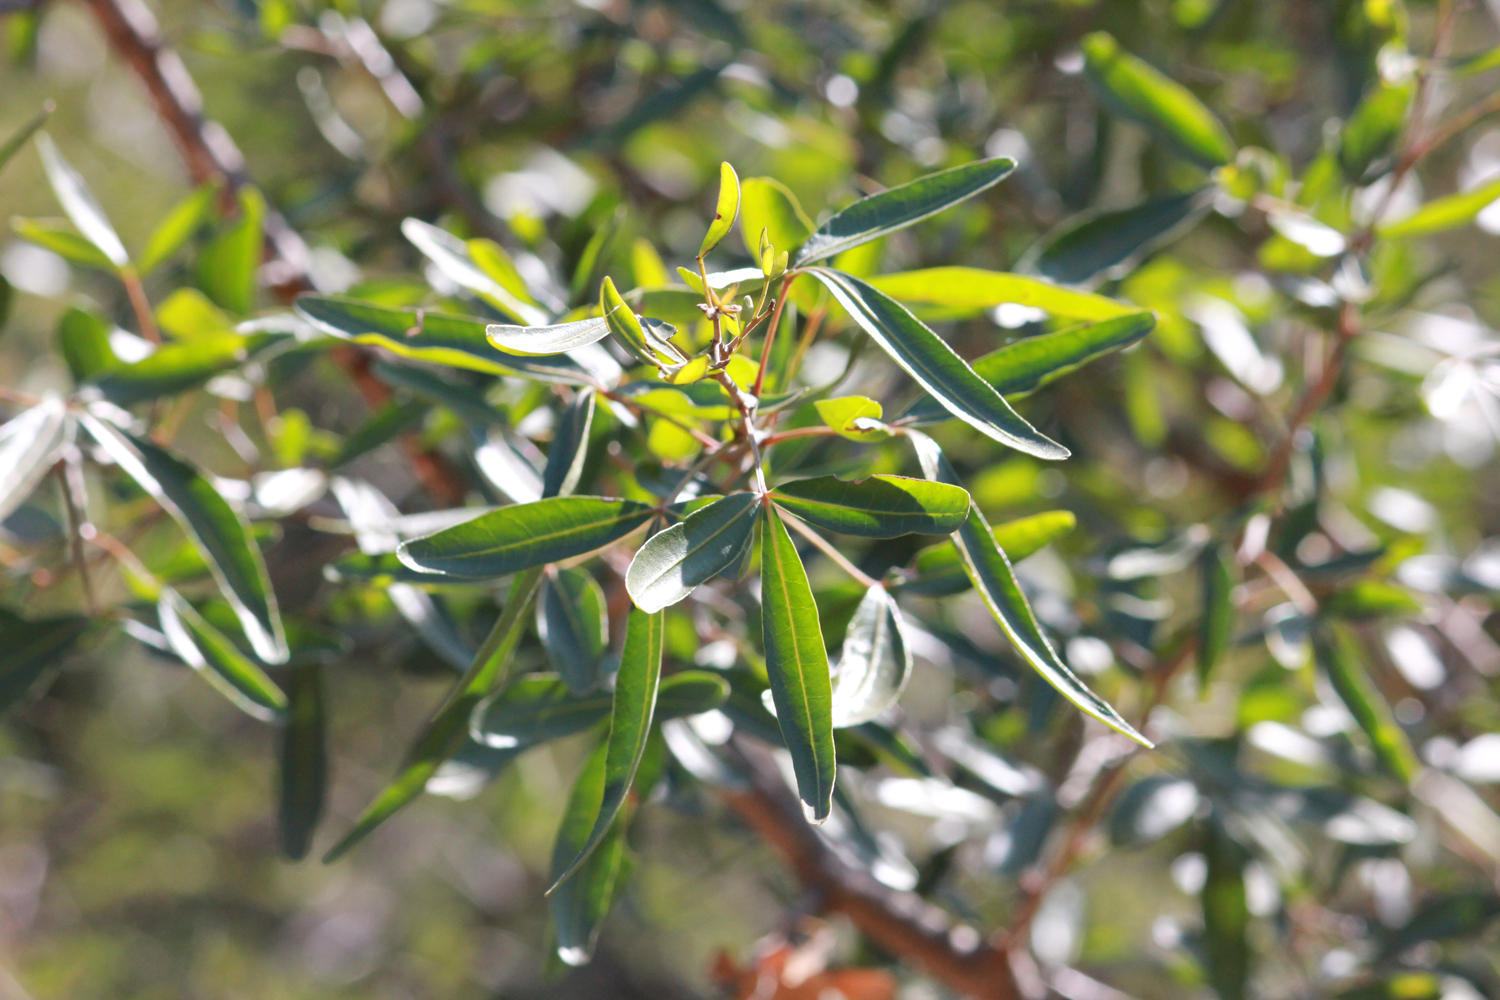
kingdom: Plantae
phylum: Tracheophyta
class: Magnoliopsida
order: Sapindales
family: Anacardiaceae
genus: Searsia
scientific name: Searsia gueinzii
